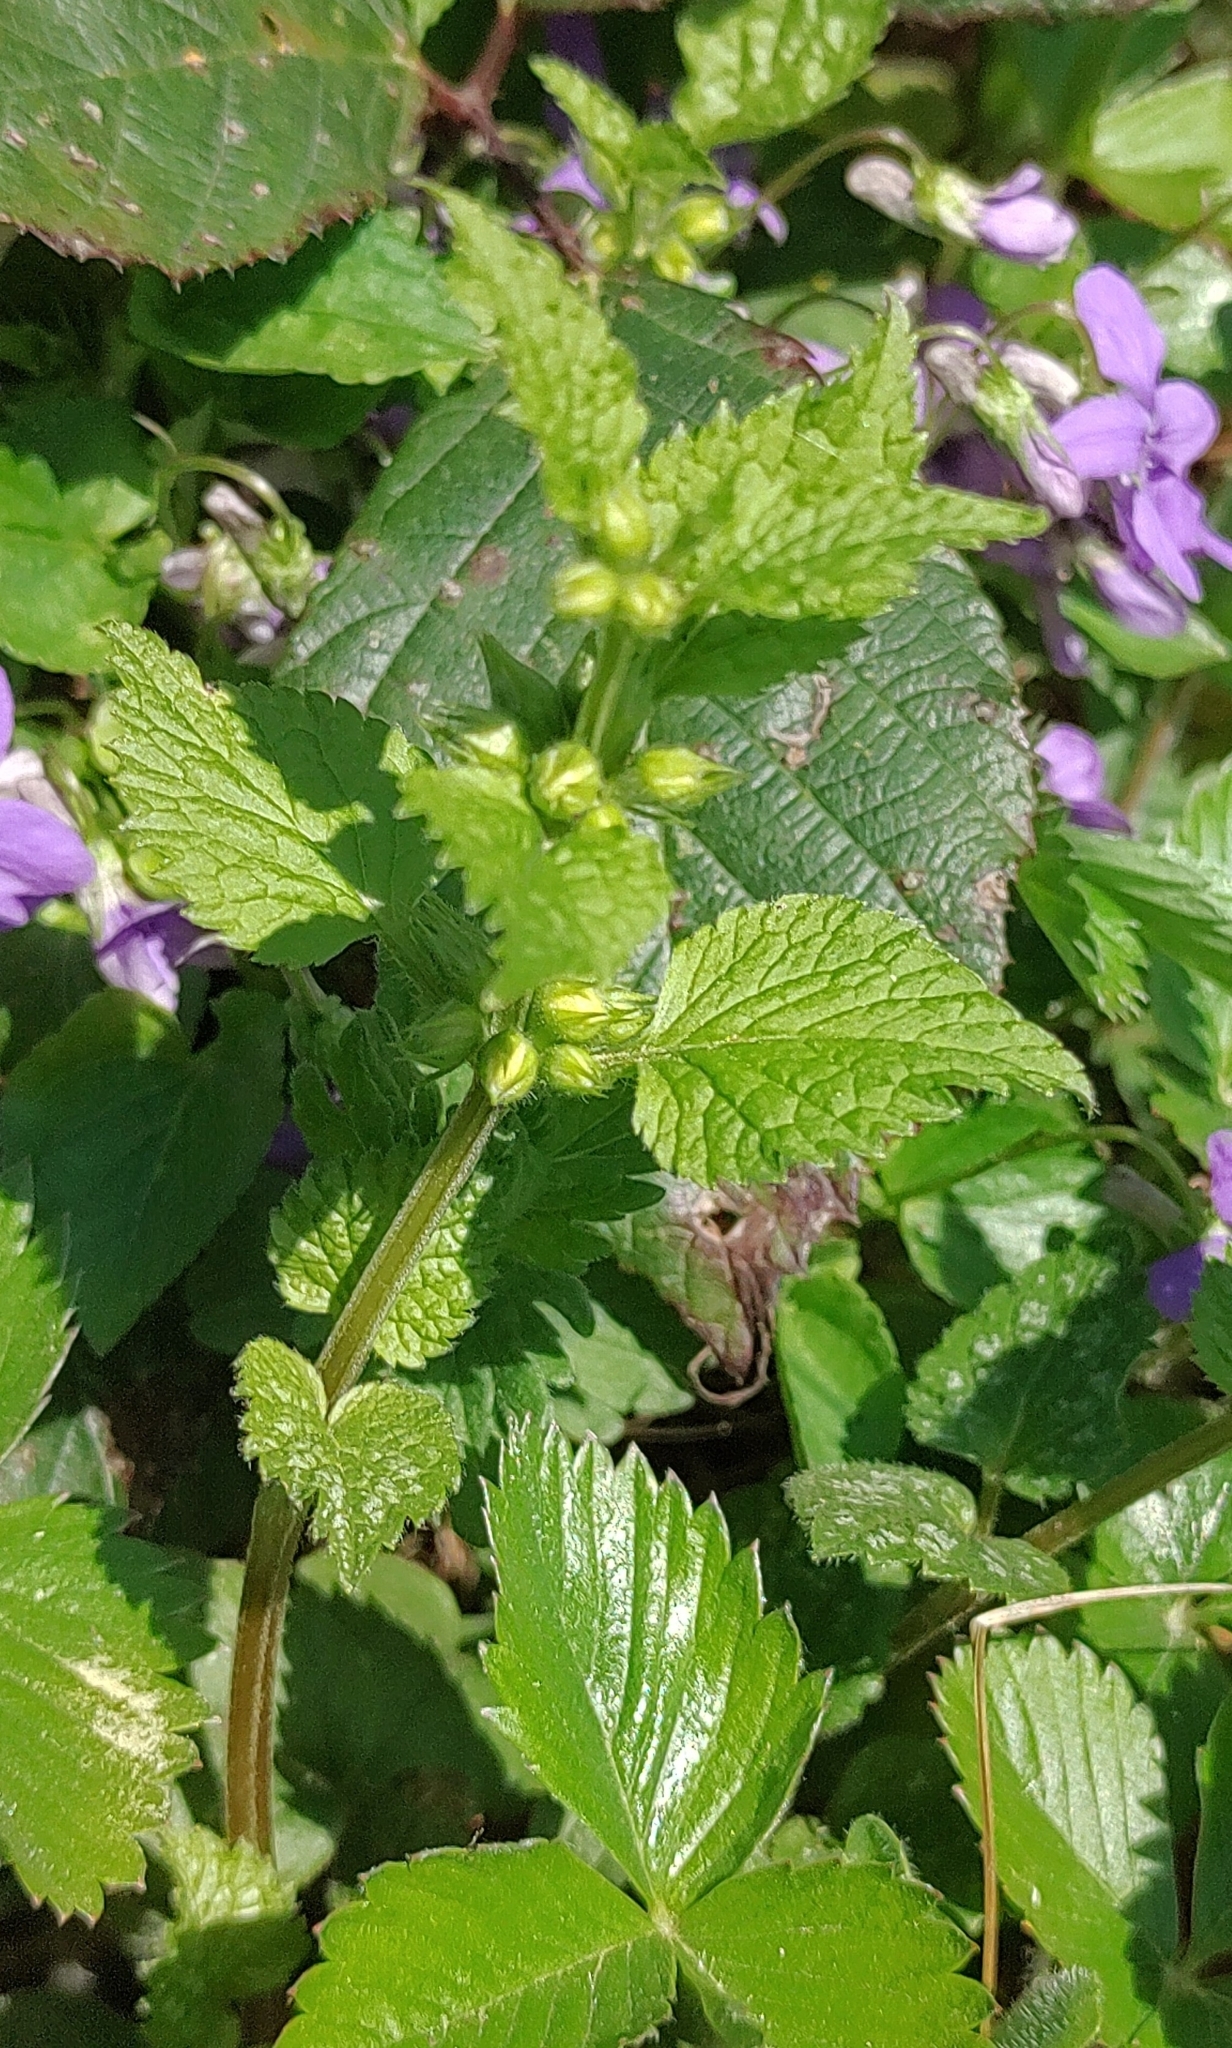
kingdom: Plantae
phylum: Tracheophyta
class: Magnoliopsida
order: Lamiales
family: Lamiaceae
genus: Lamium
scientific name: Lamium galeobdolon
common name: Yellow archangel
